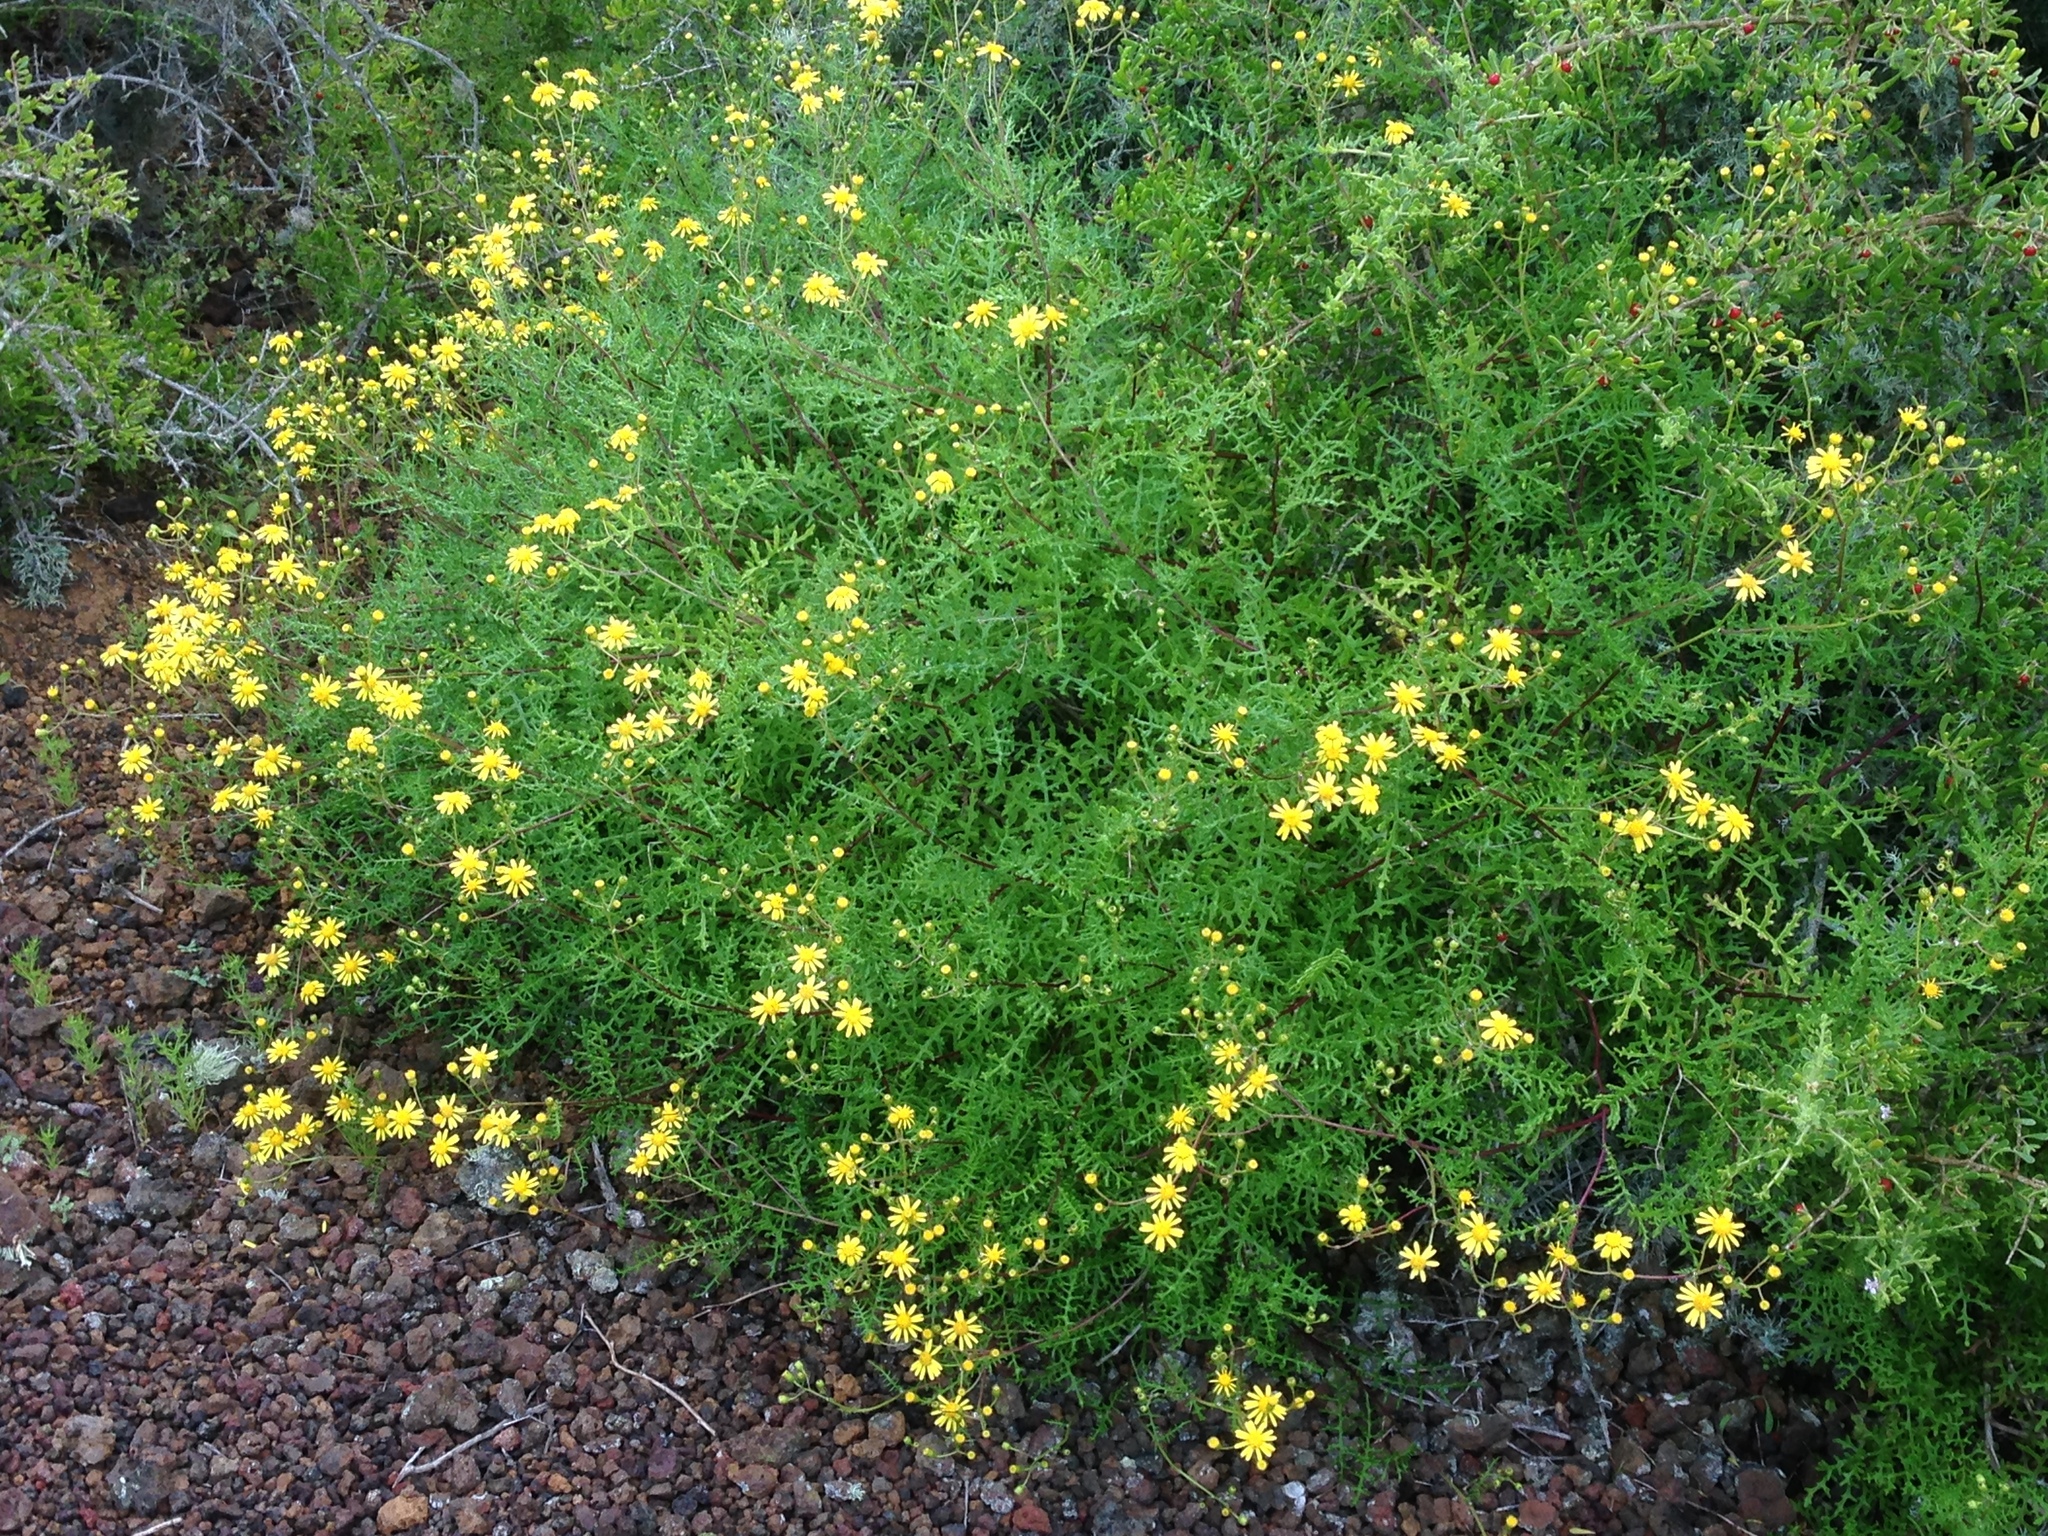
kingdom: Plantae
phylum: Tracheophyta
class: Magnoliopsida
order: Asterales
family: Asteraceae
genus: Senecio
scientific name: Senecio lyonii
